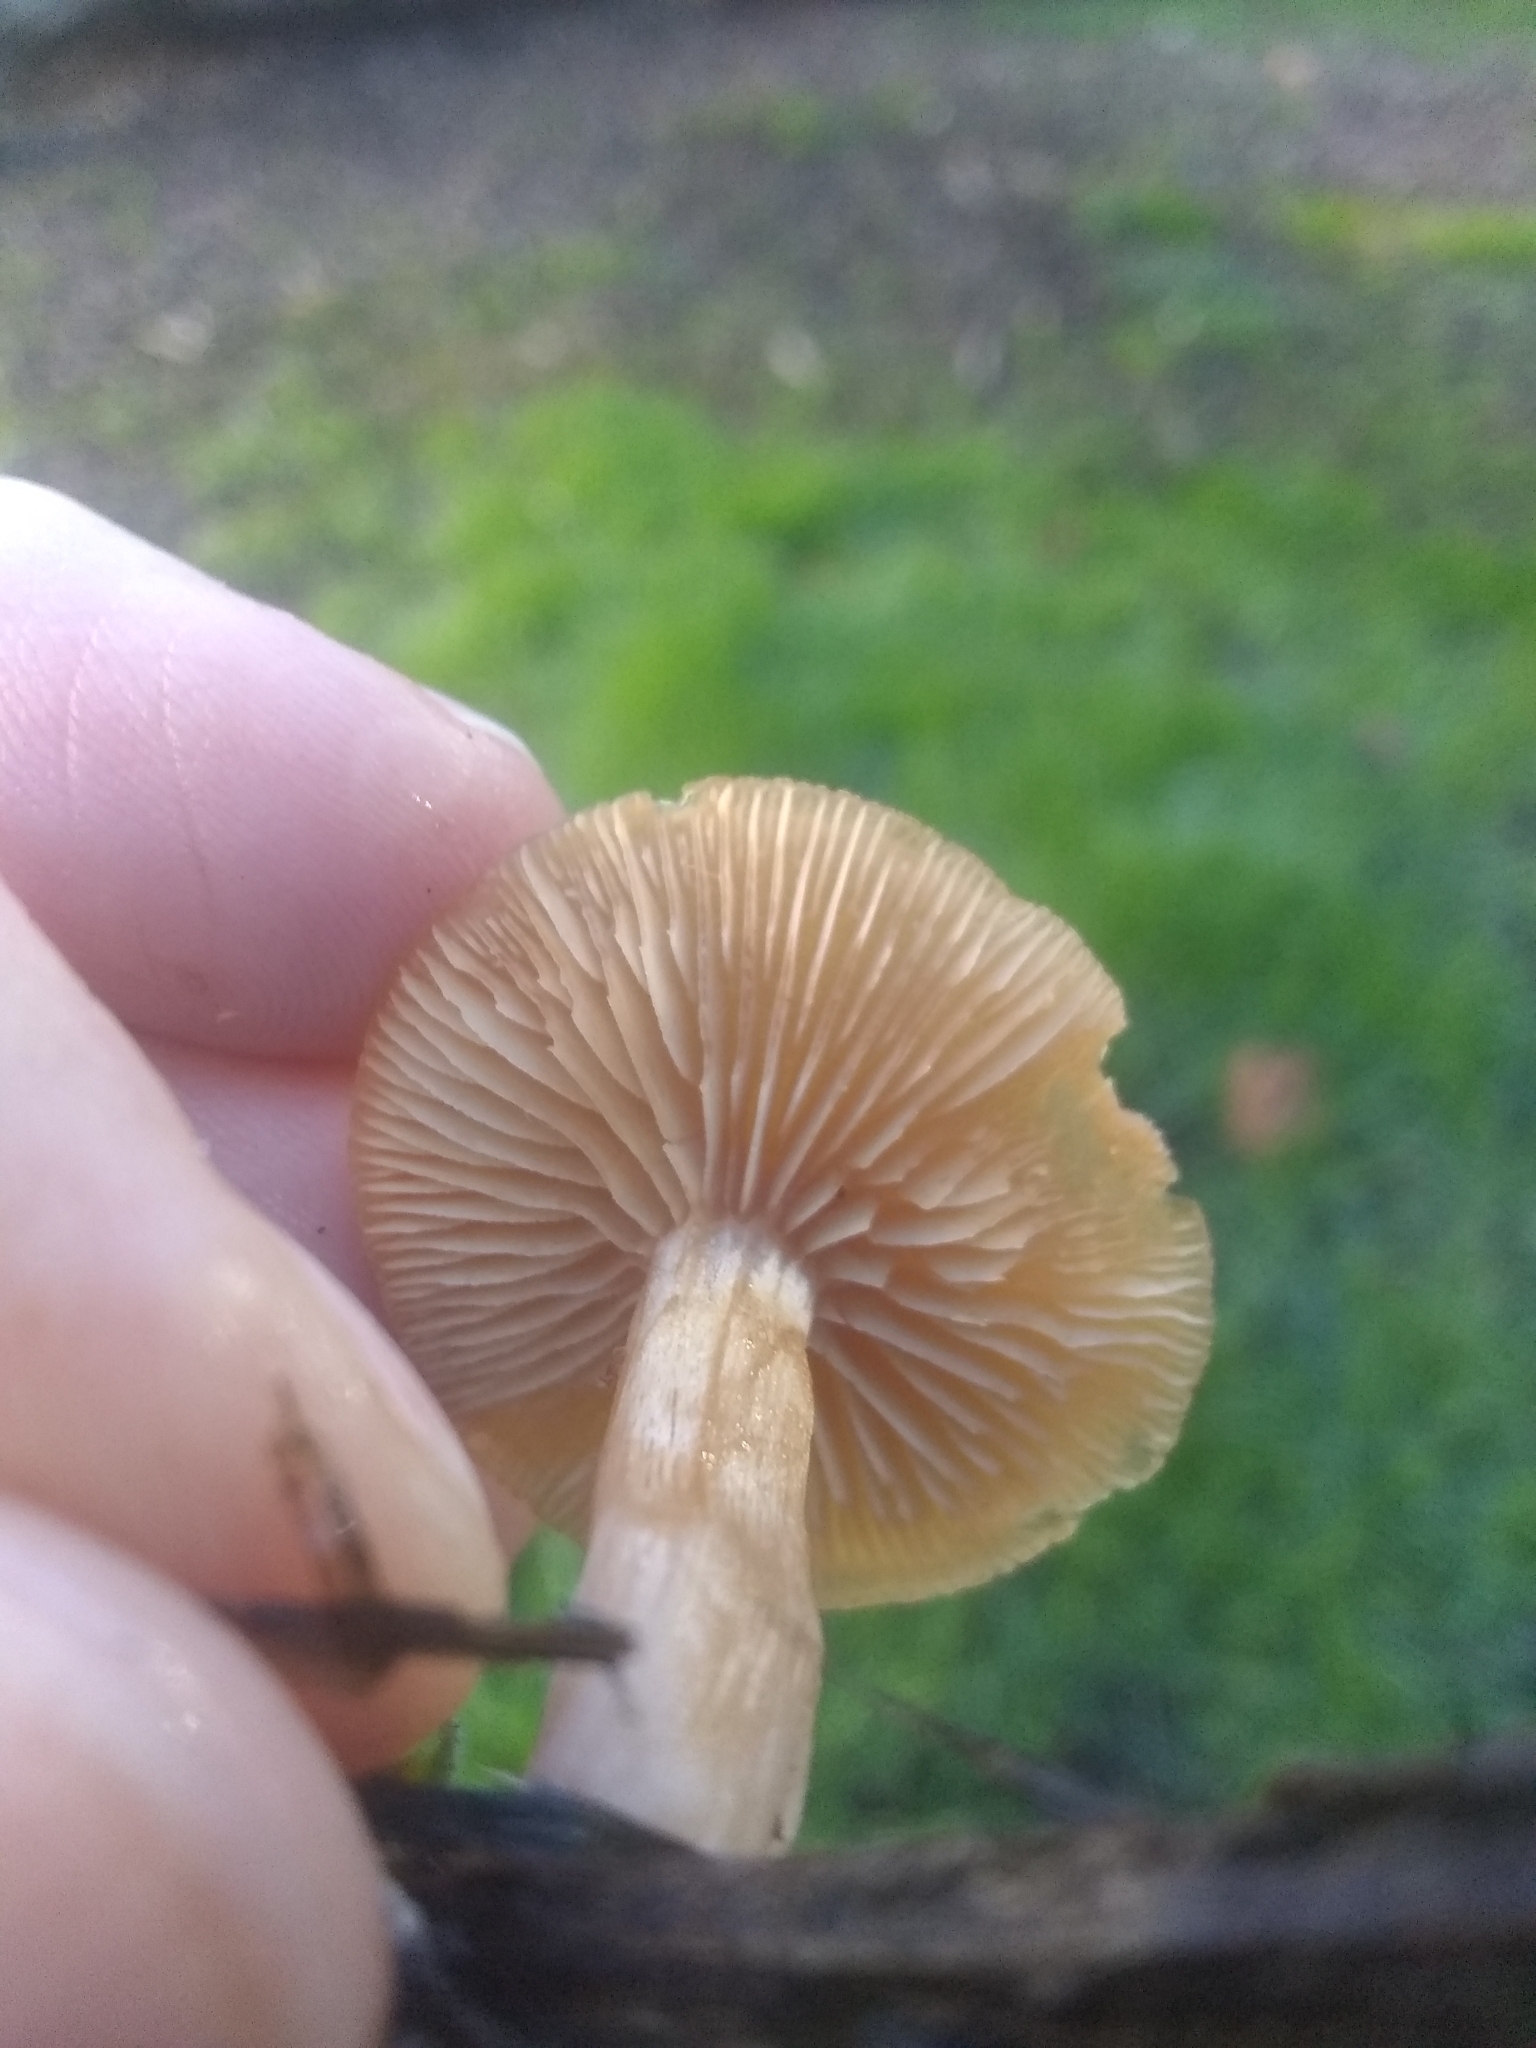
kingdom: Fungi
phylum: Basidiomycota
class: Agaricomycetes
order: Agaricales
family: Tubariaceae
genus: Tubaria
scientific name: Tubaria furfuracea
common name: Scurfy twiglet
